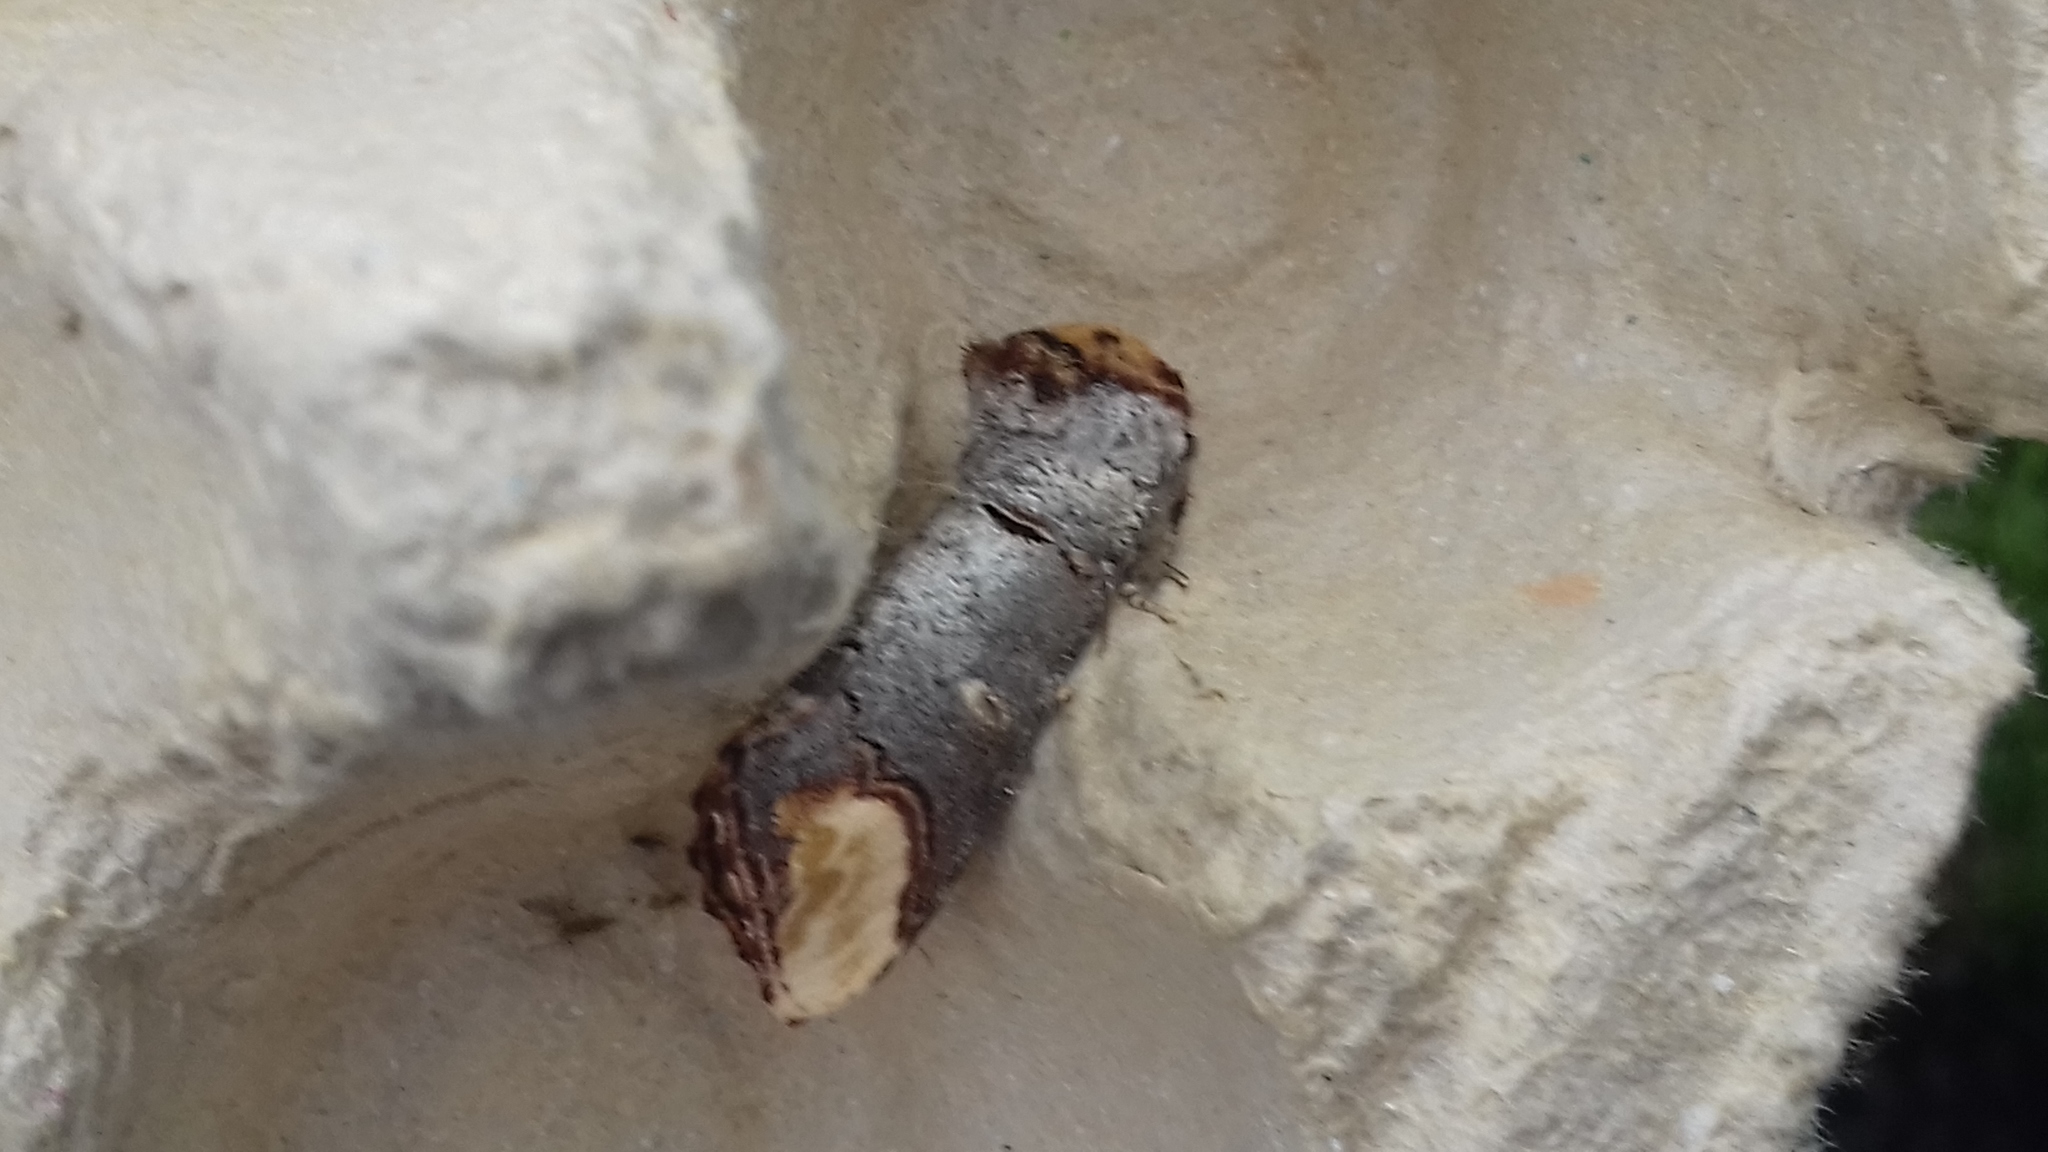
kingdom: Animalia
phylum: Arthropoda
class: Insecta
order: Lepidoptera
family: Notodontidae
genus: Phalera
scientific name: Phalera bucephala
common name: Buff-tip
